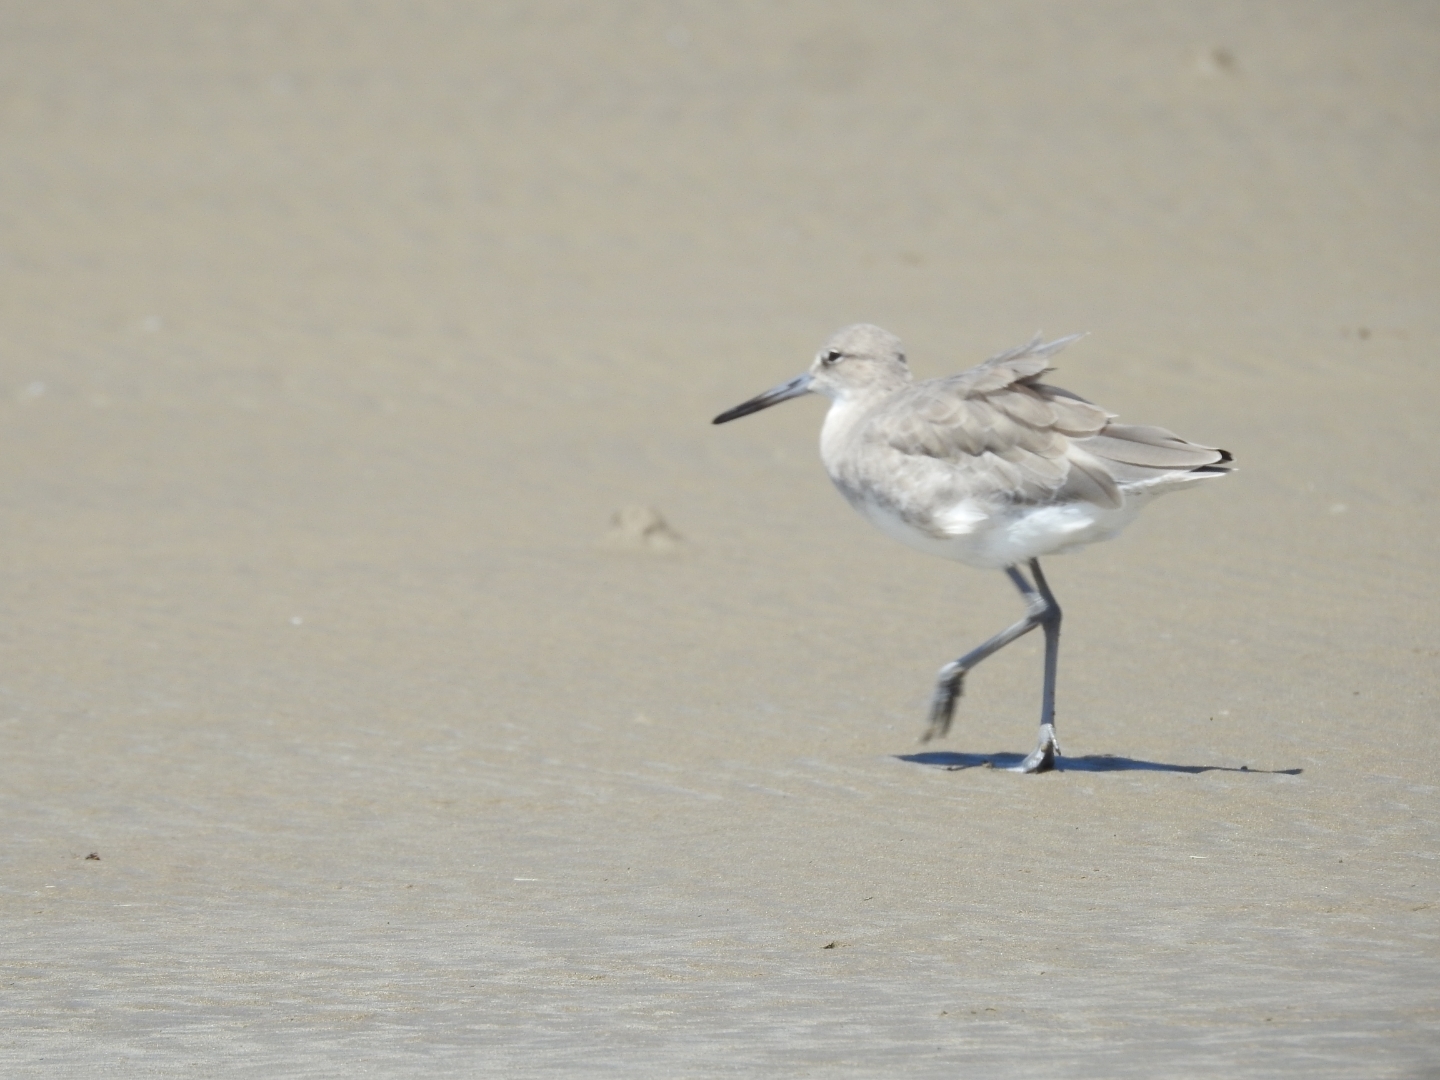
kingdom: Animalia
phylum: Chordata
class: Aves
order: Charadriiformes
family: Scolopacidae
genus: Tringa
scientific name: Tringa semipalmata
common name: Willet
